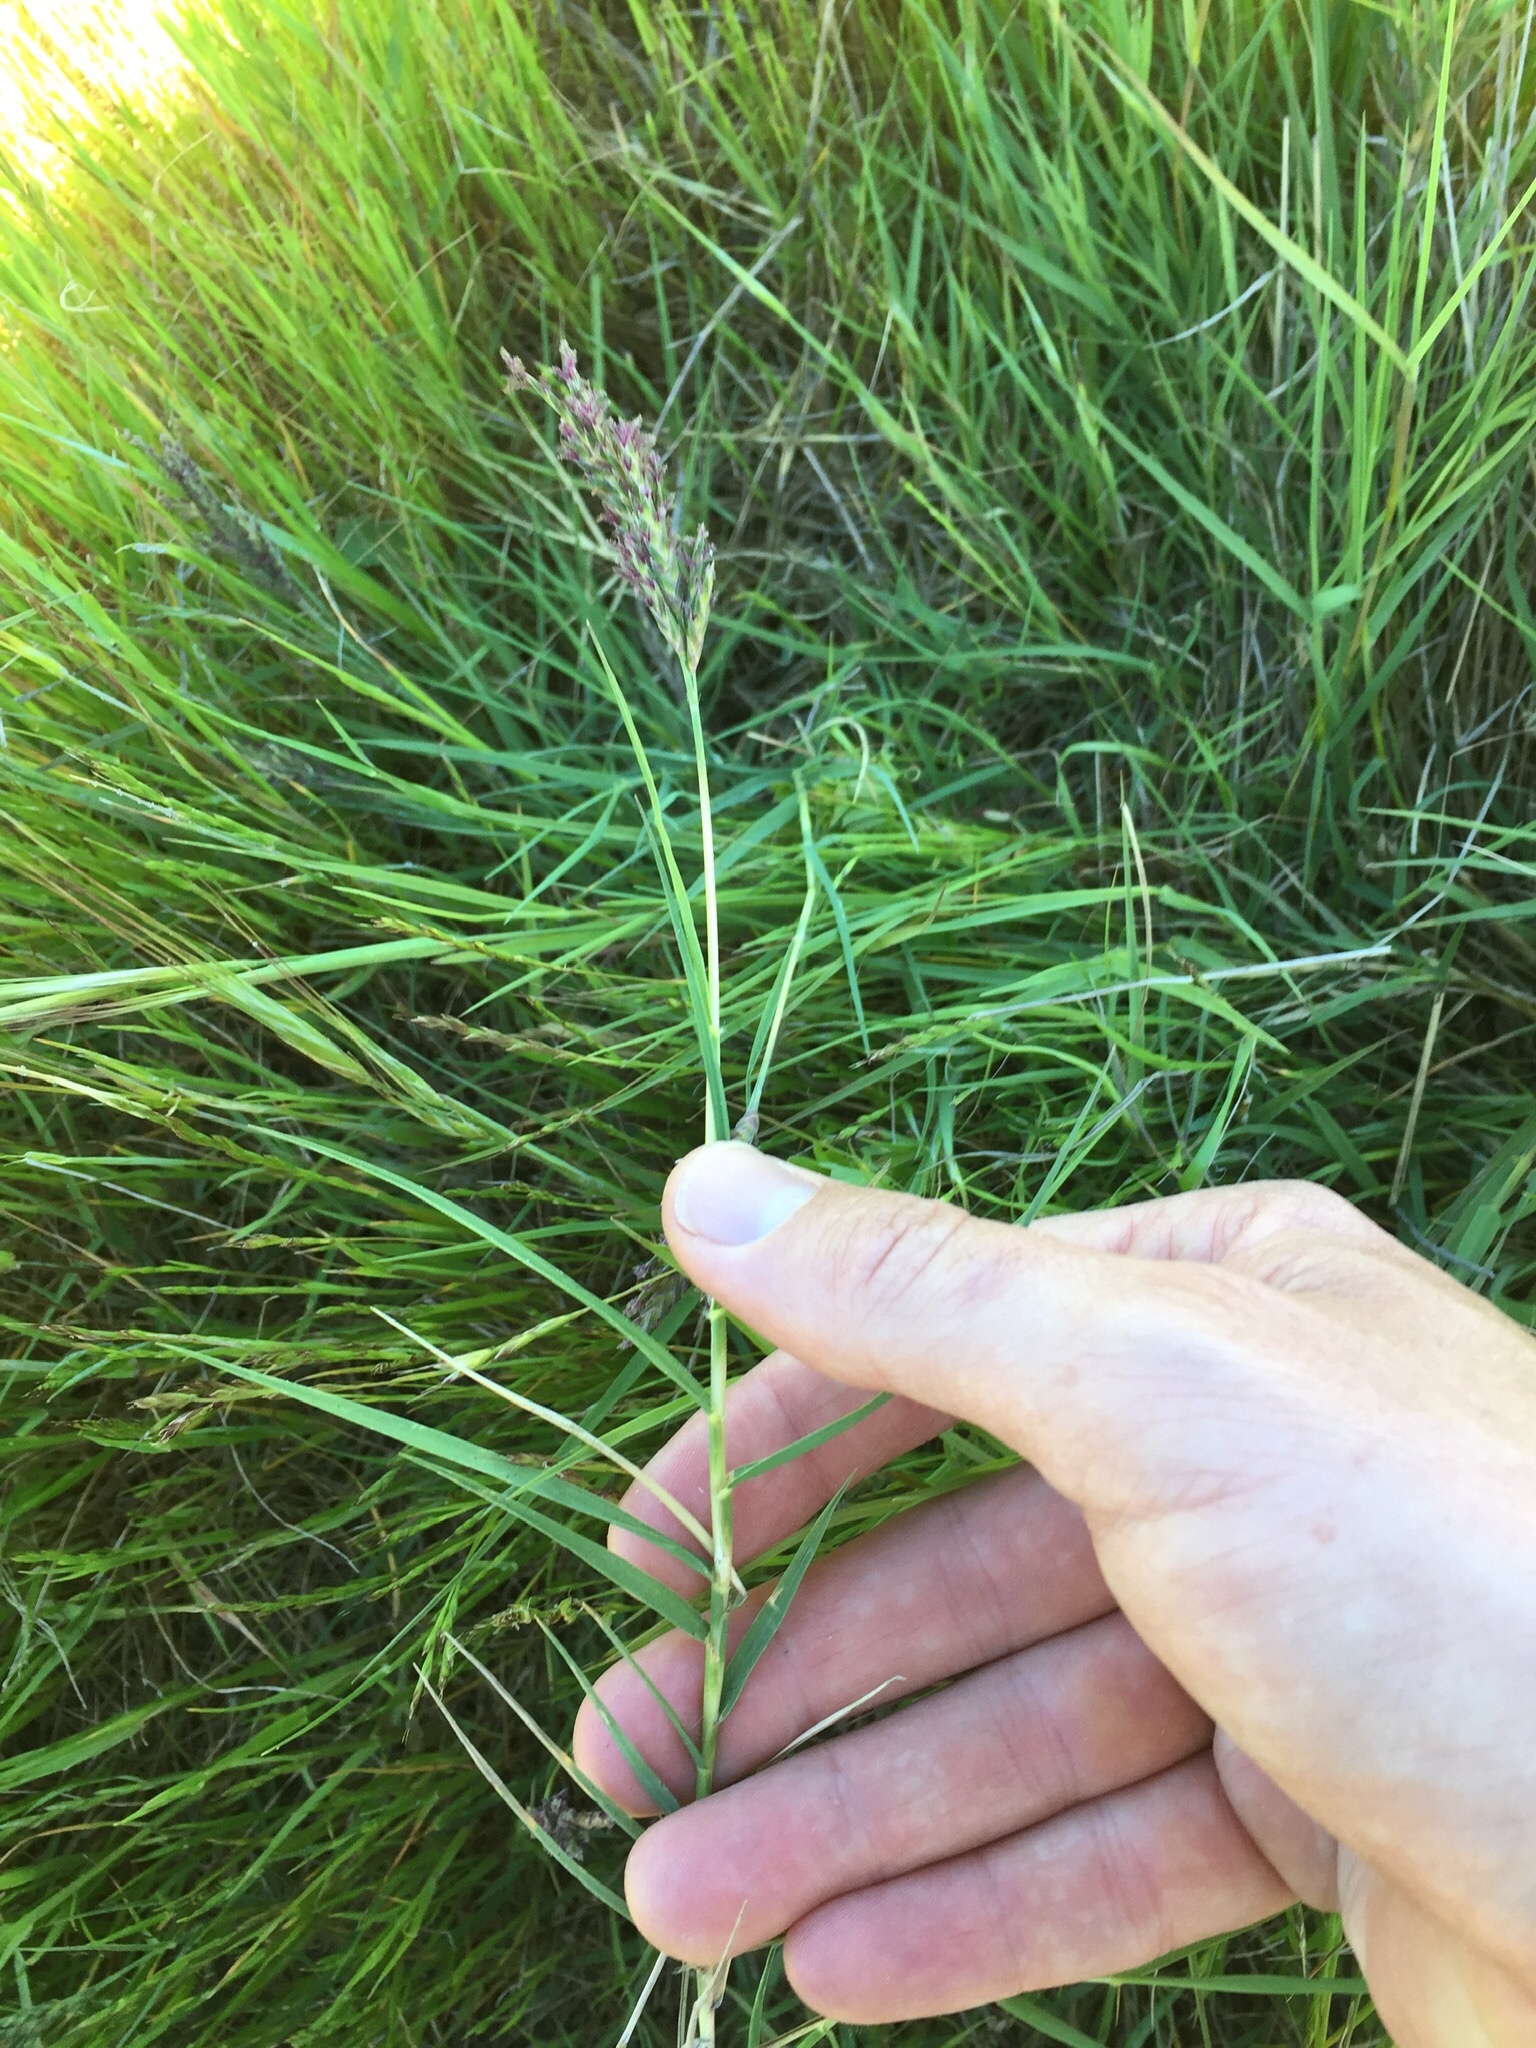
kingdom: Plantae
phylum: Tracheophyta
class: Liliopsida
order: Poales
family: Poaceae
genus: Distichlis
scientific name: Distichlis spicata
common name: Saltgrass
